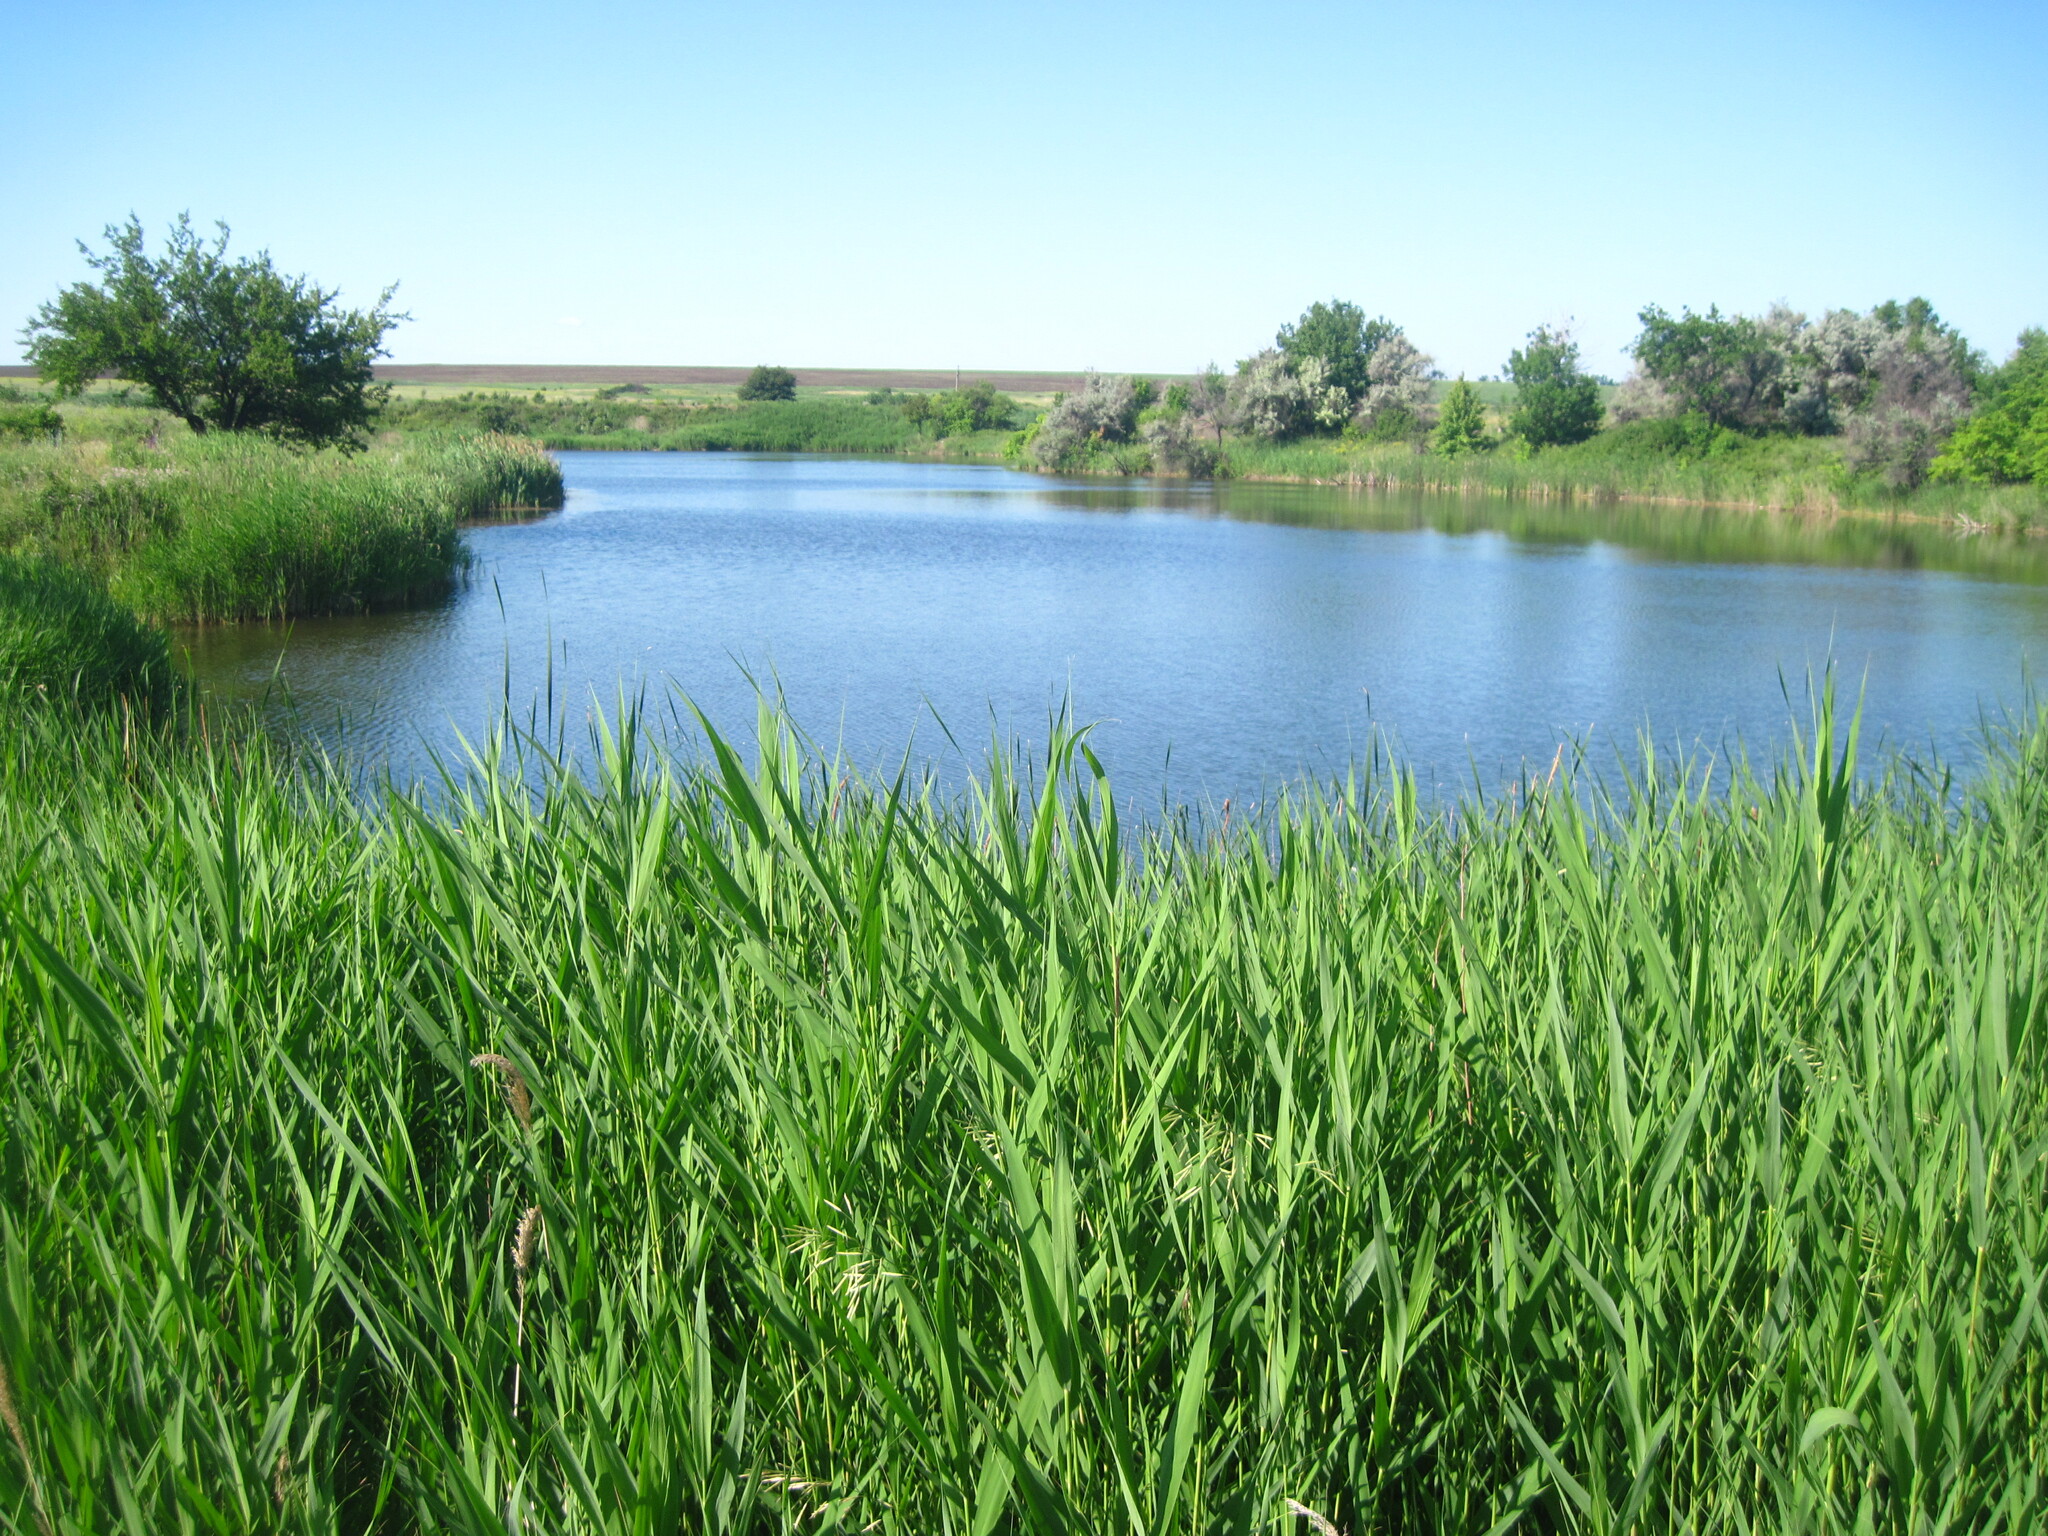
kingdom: Plantae
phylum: Tracheophyta
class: Liliopsida
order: Poales
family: Poaceae
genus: Phragmites
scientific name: Phragmites australis
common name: Common reed
